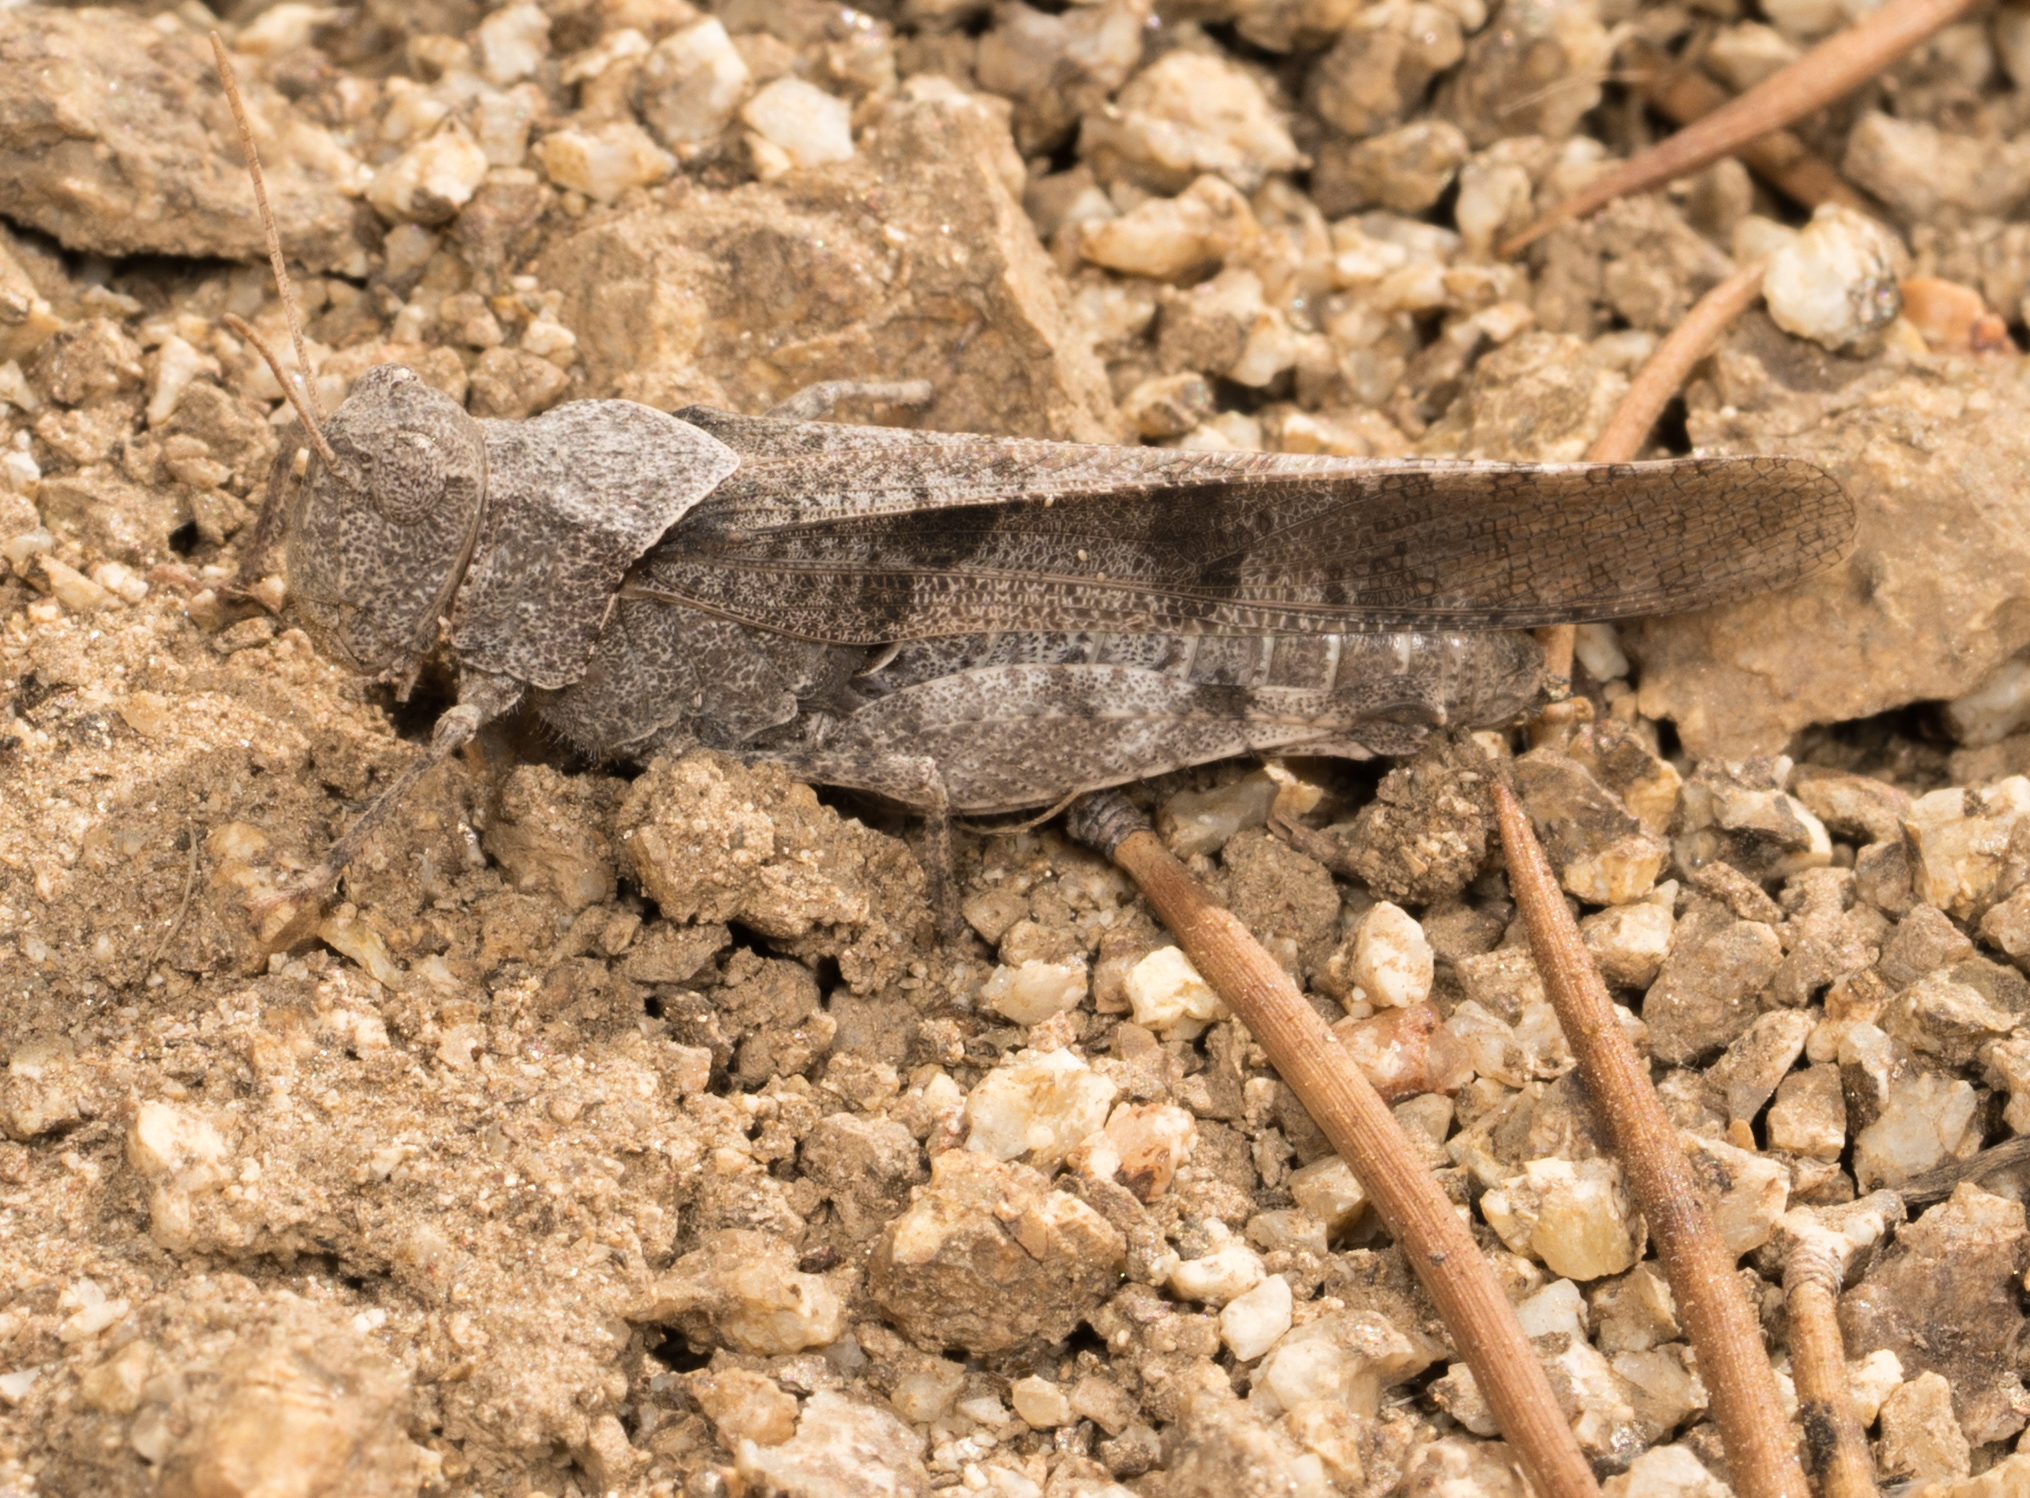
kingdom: Animalia
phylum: Arthropoda
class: Insecta
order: Orthoptera
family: Acrididae
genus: Trimerotropis
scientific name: Trimerotropis thalassica
